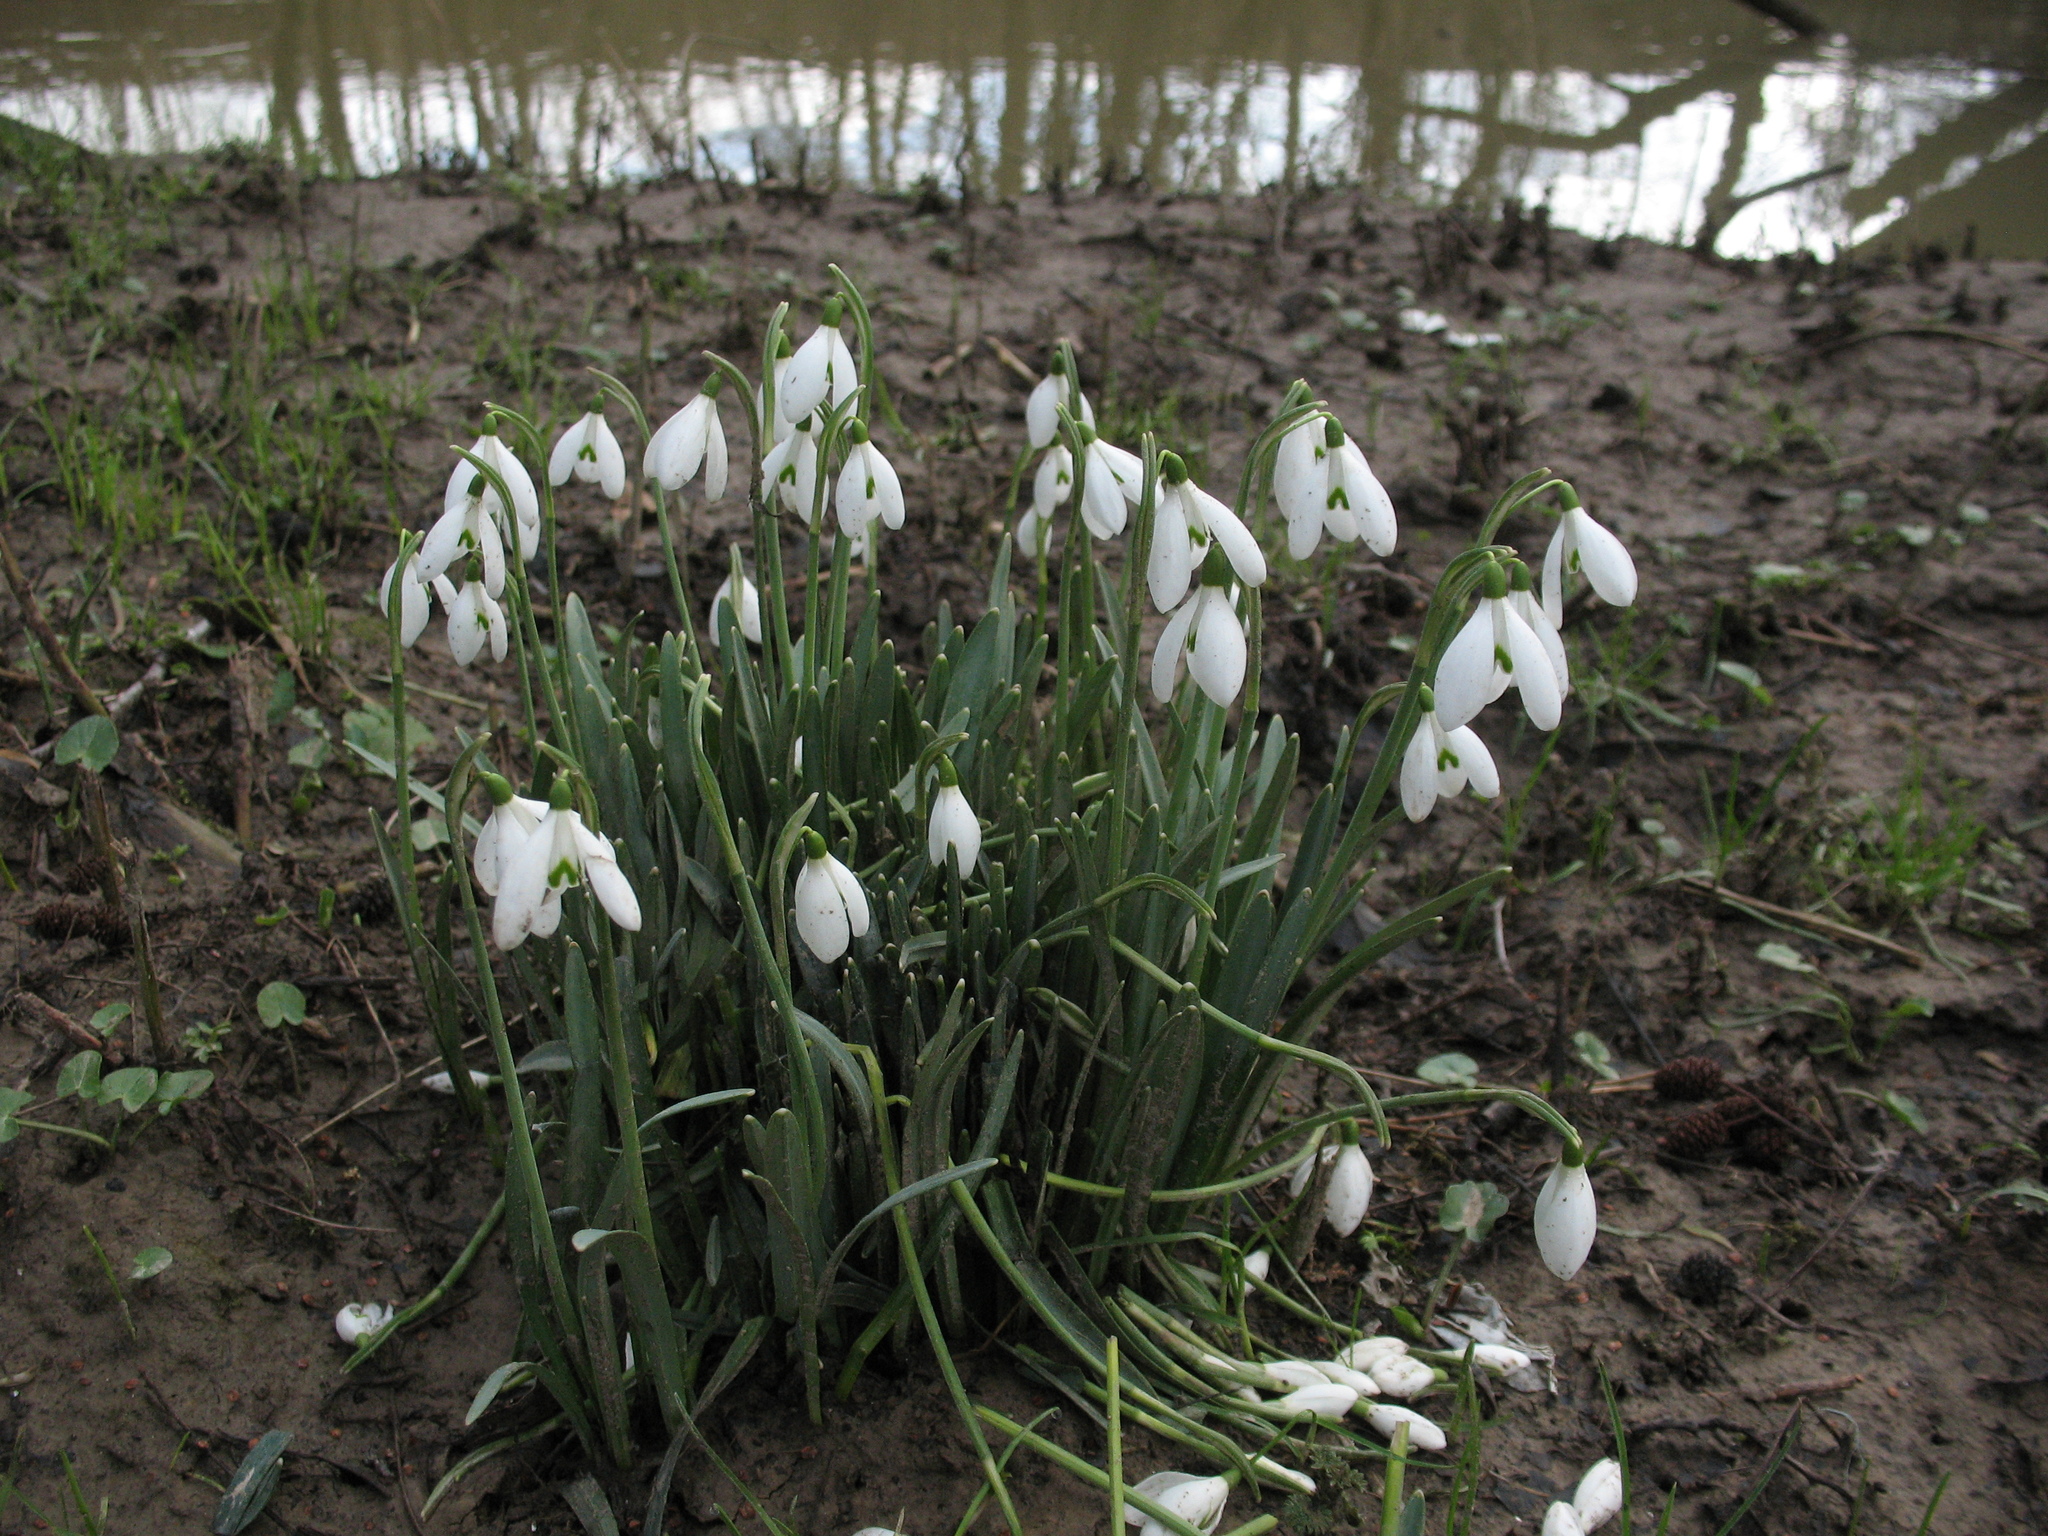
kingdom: Plantae
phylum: Tracheophyta
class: Liliopsida
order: Asparagales
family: Amaryllidaceae
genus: Galanthus
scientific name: Galanthus nivalis
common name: Snowdrop
